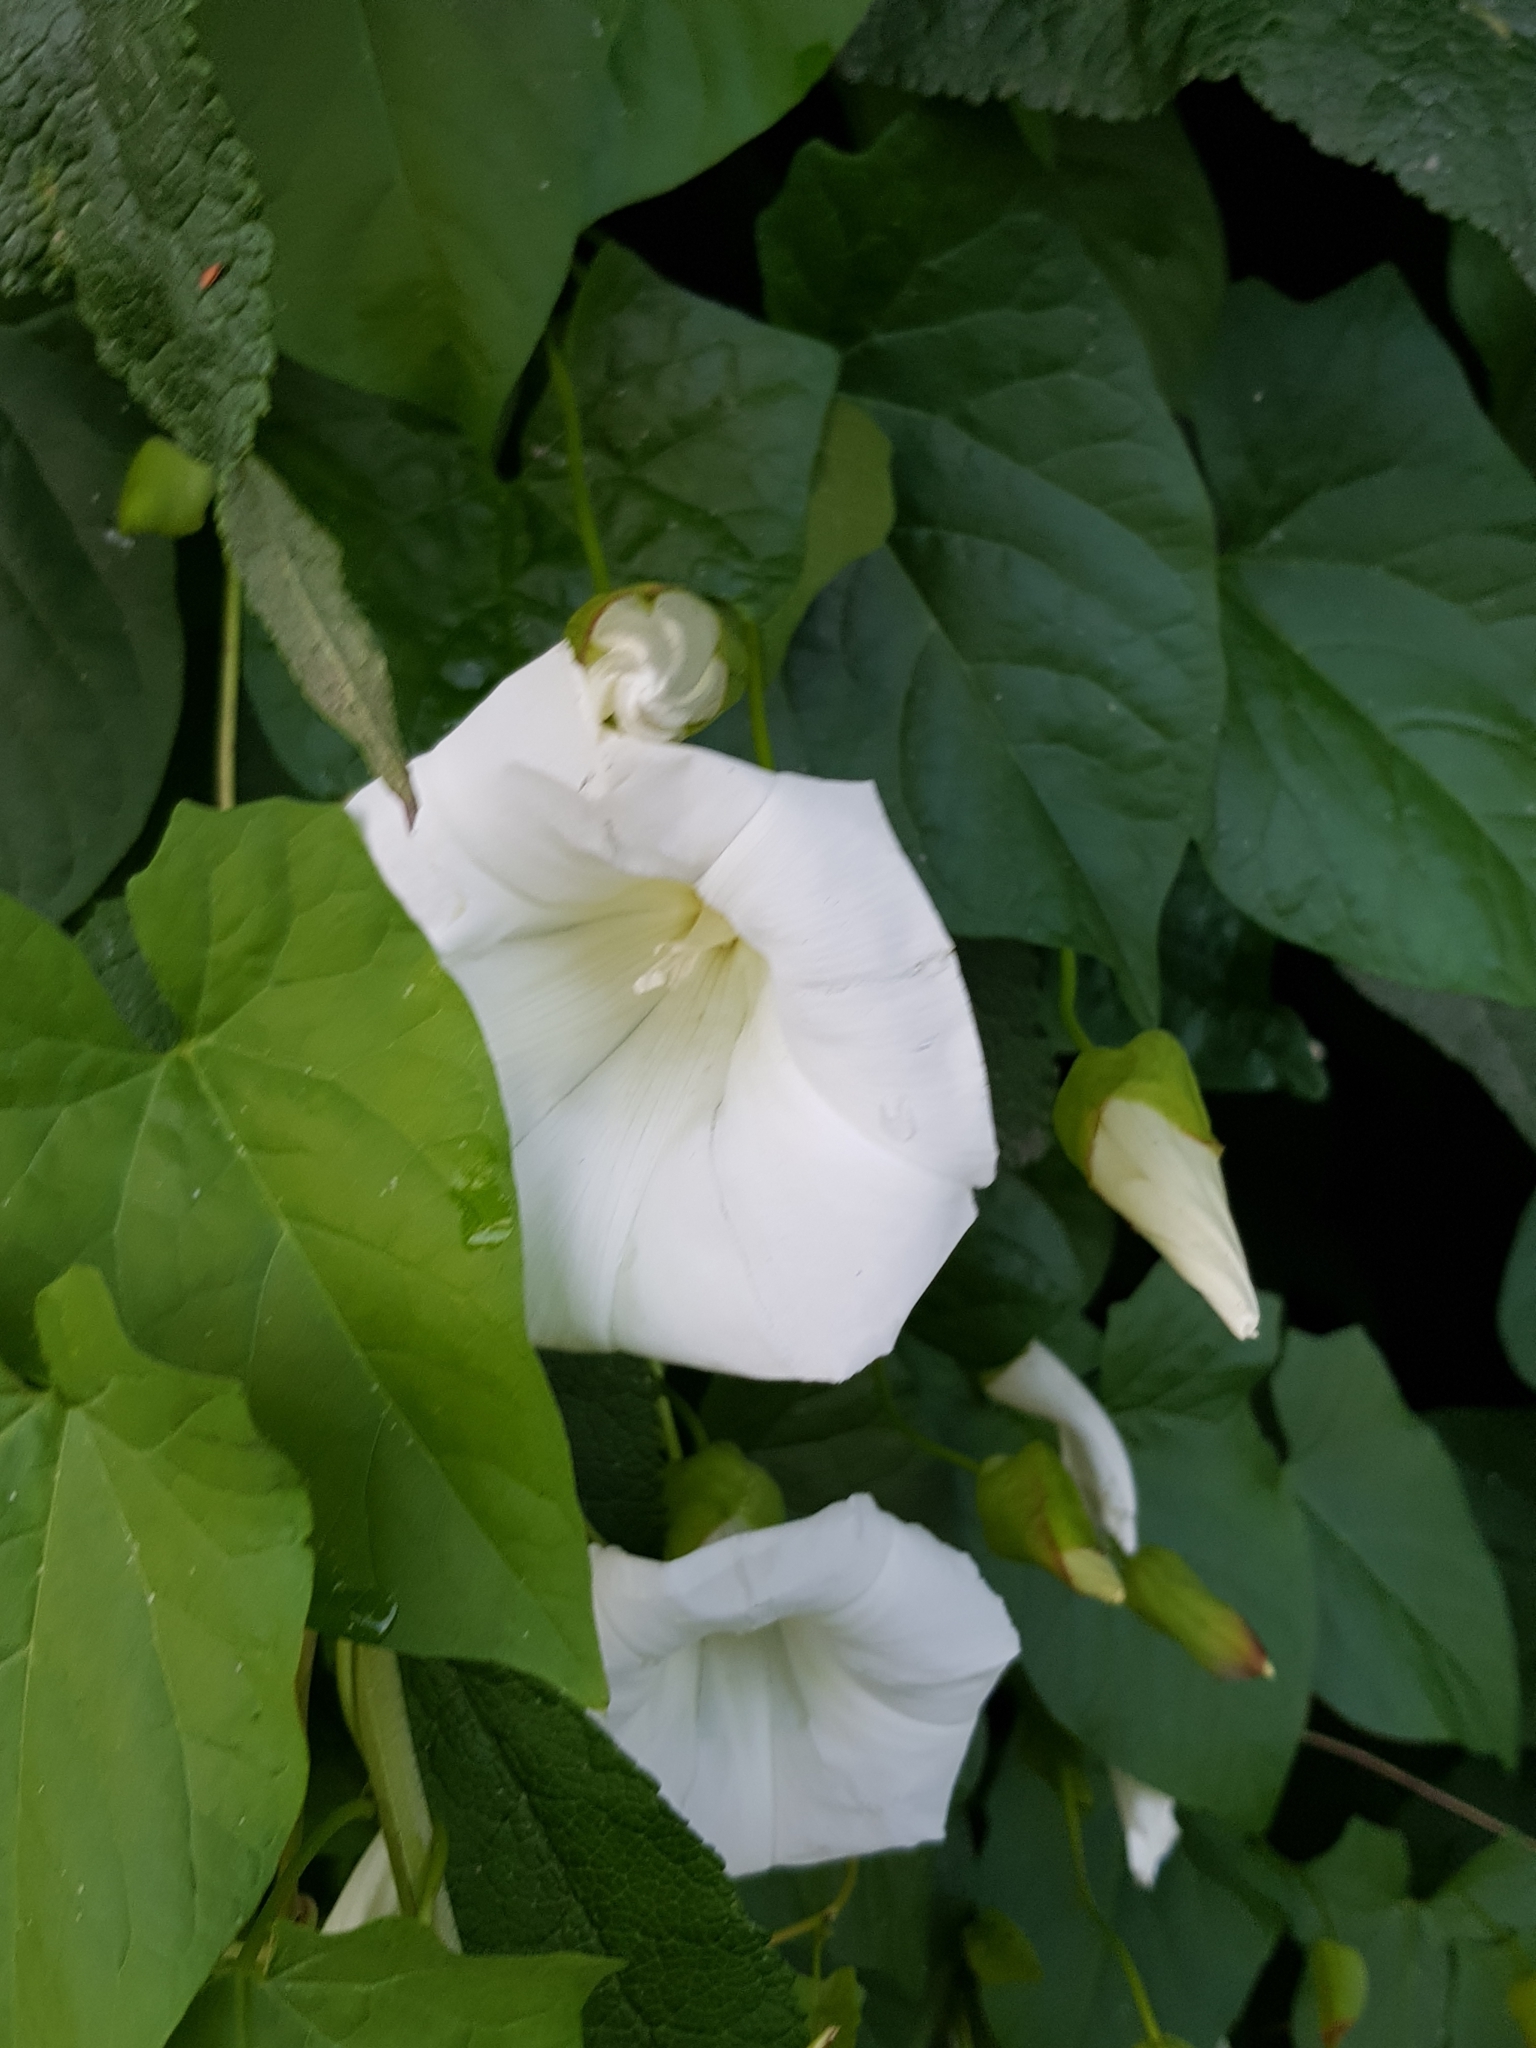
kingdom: Plantae
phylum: Tracheophyta
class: Magnoliopsida
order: Solanales
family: Convolvulaceae
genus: Calystegia
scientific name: Calystegia silvatica
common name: Large bindweed
